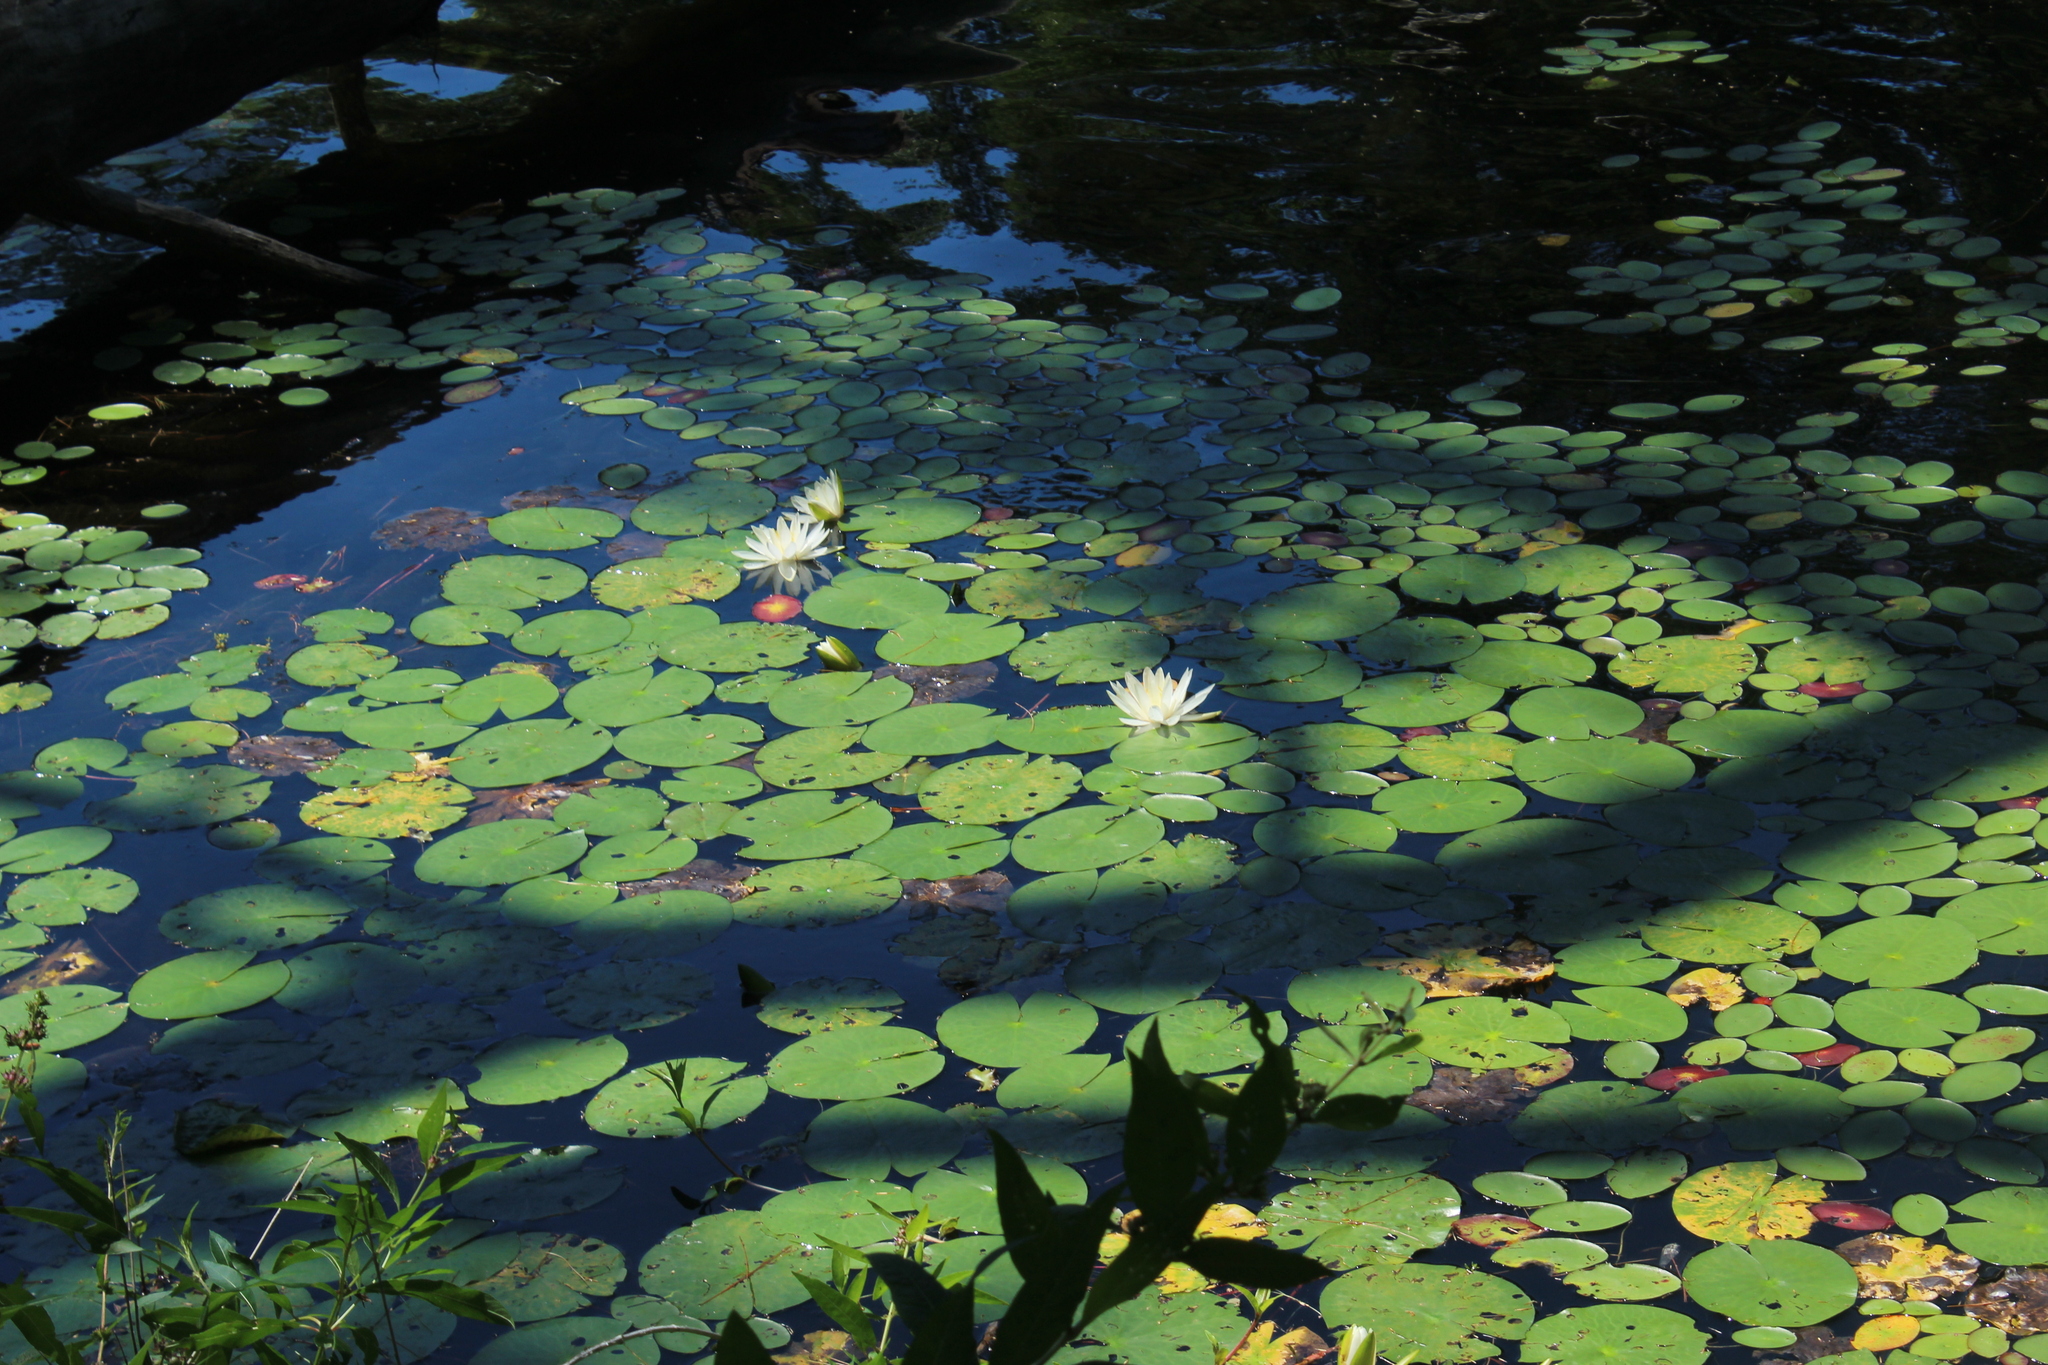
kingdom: Plantae
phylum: Tracheophyta
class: Magnoliopsida
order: Nymphaeales
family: Nymphaeaceae
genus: Nymphaea
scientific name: Nymphaea odorata
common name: Fragrant water-lily
